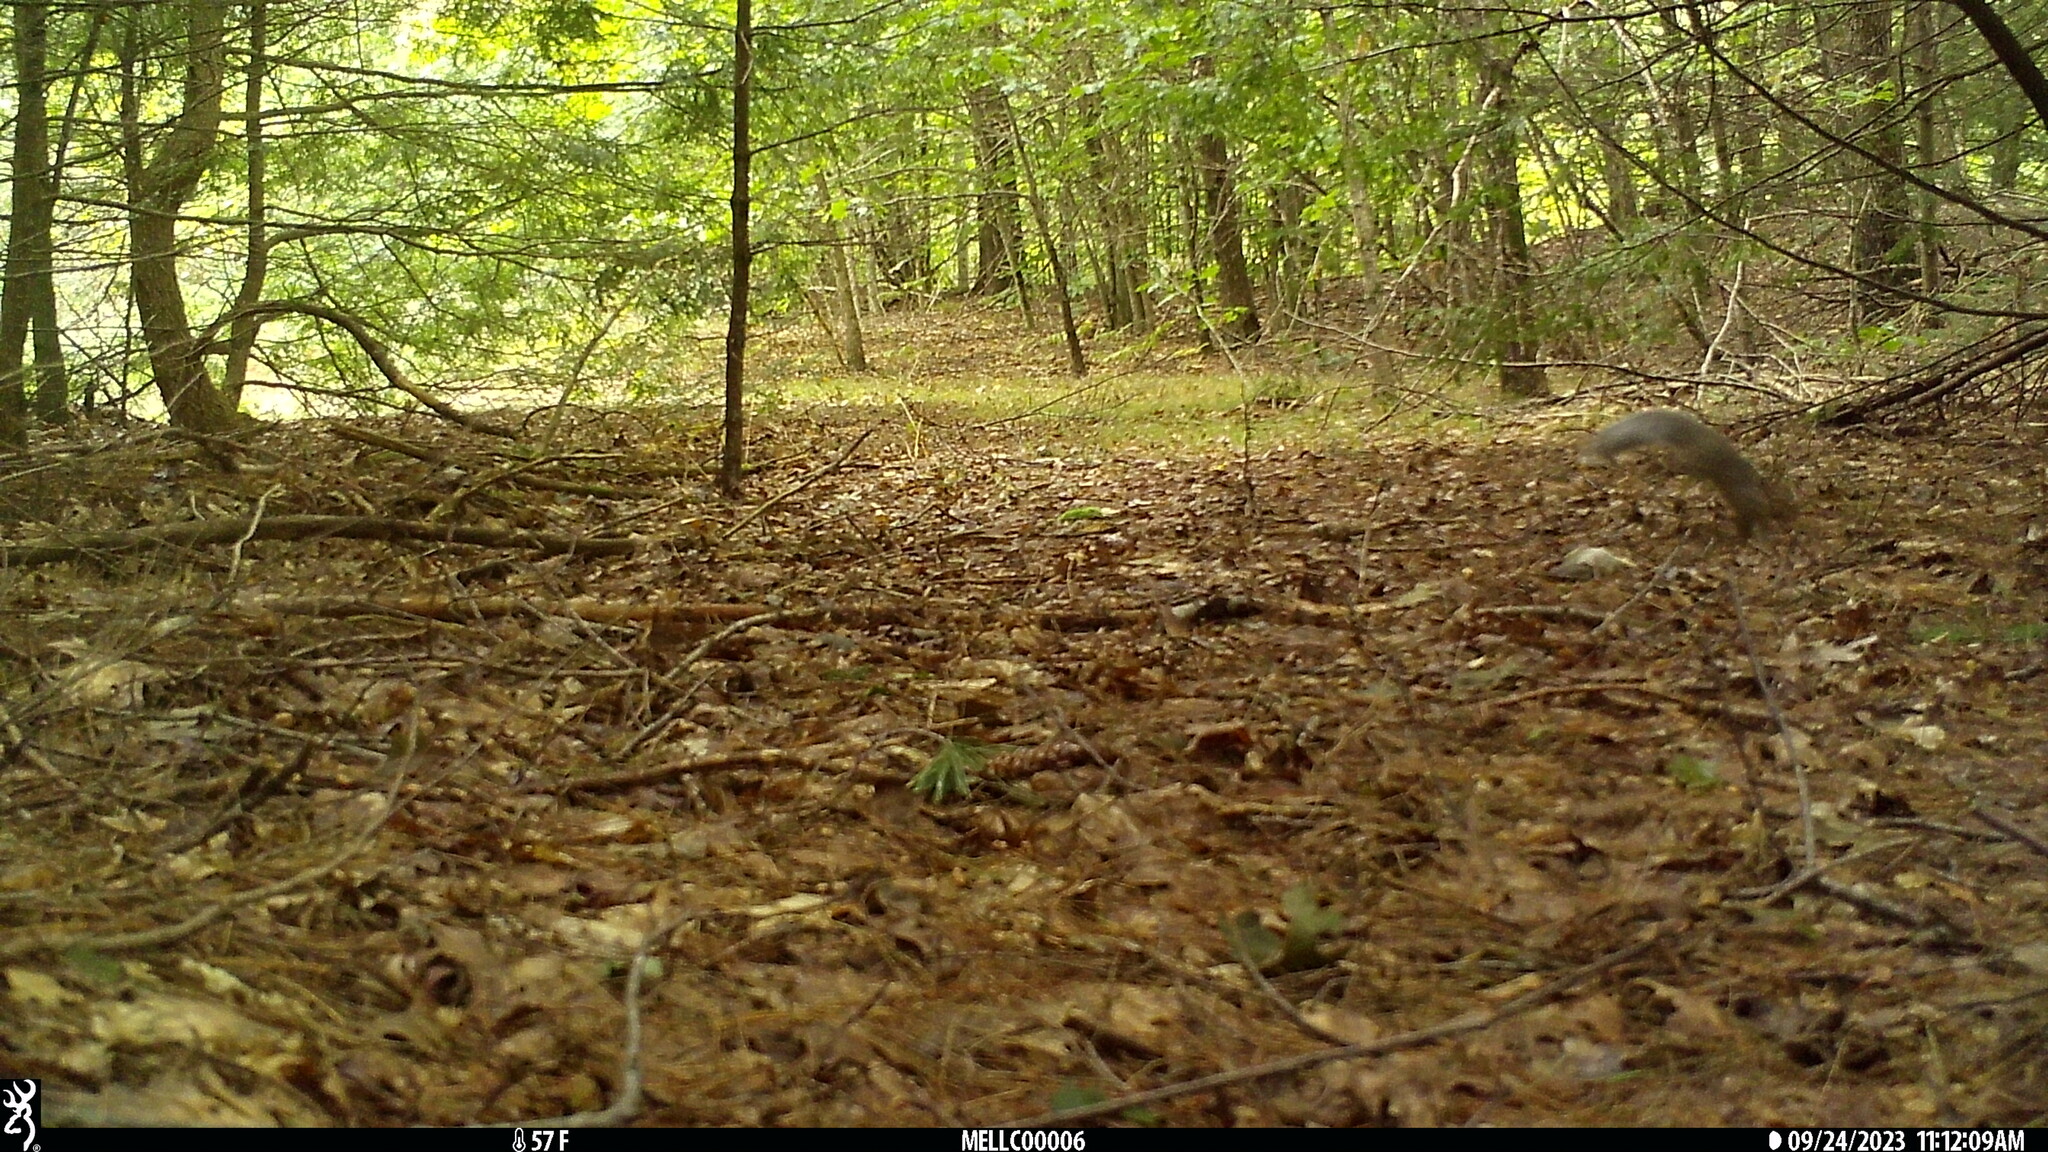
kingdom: Animalia
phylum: Chordata
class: Mammalia
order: Rodentia
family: Sciuridae
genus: Sciurus
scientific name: Sciurus carolinensis
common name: Eastern gray squirrel
